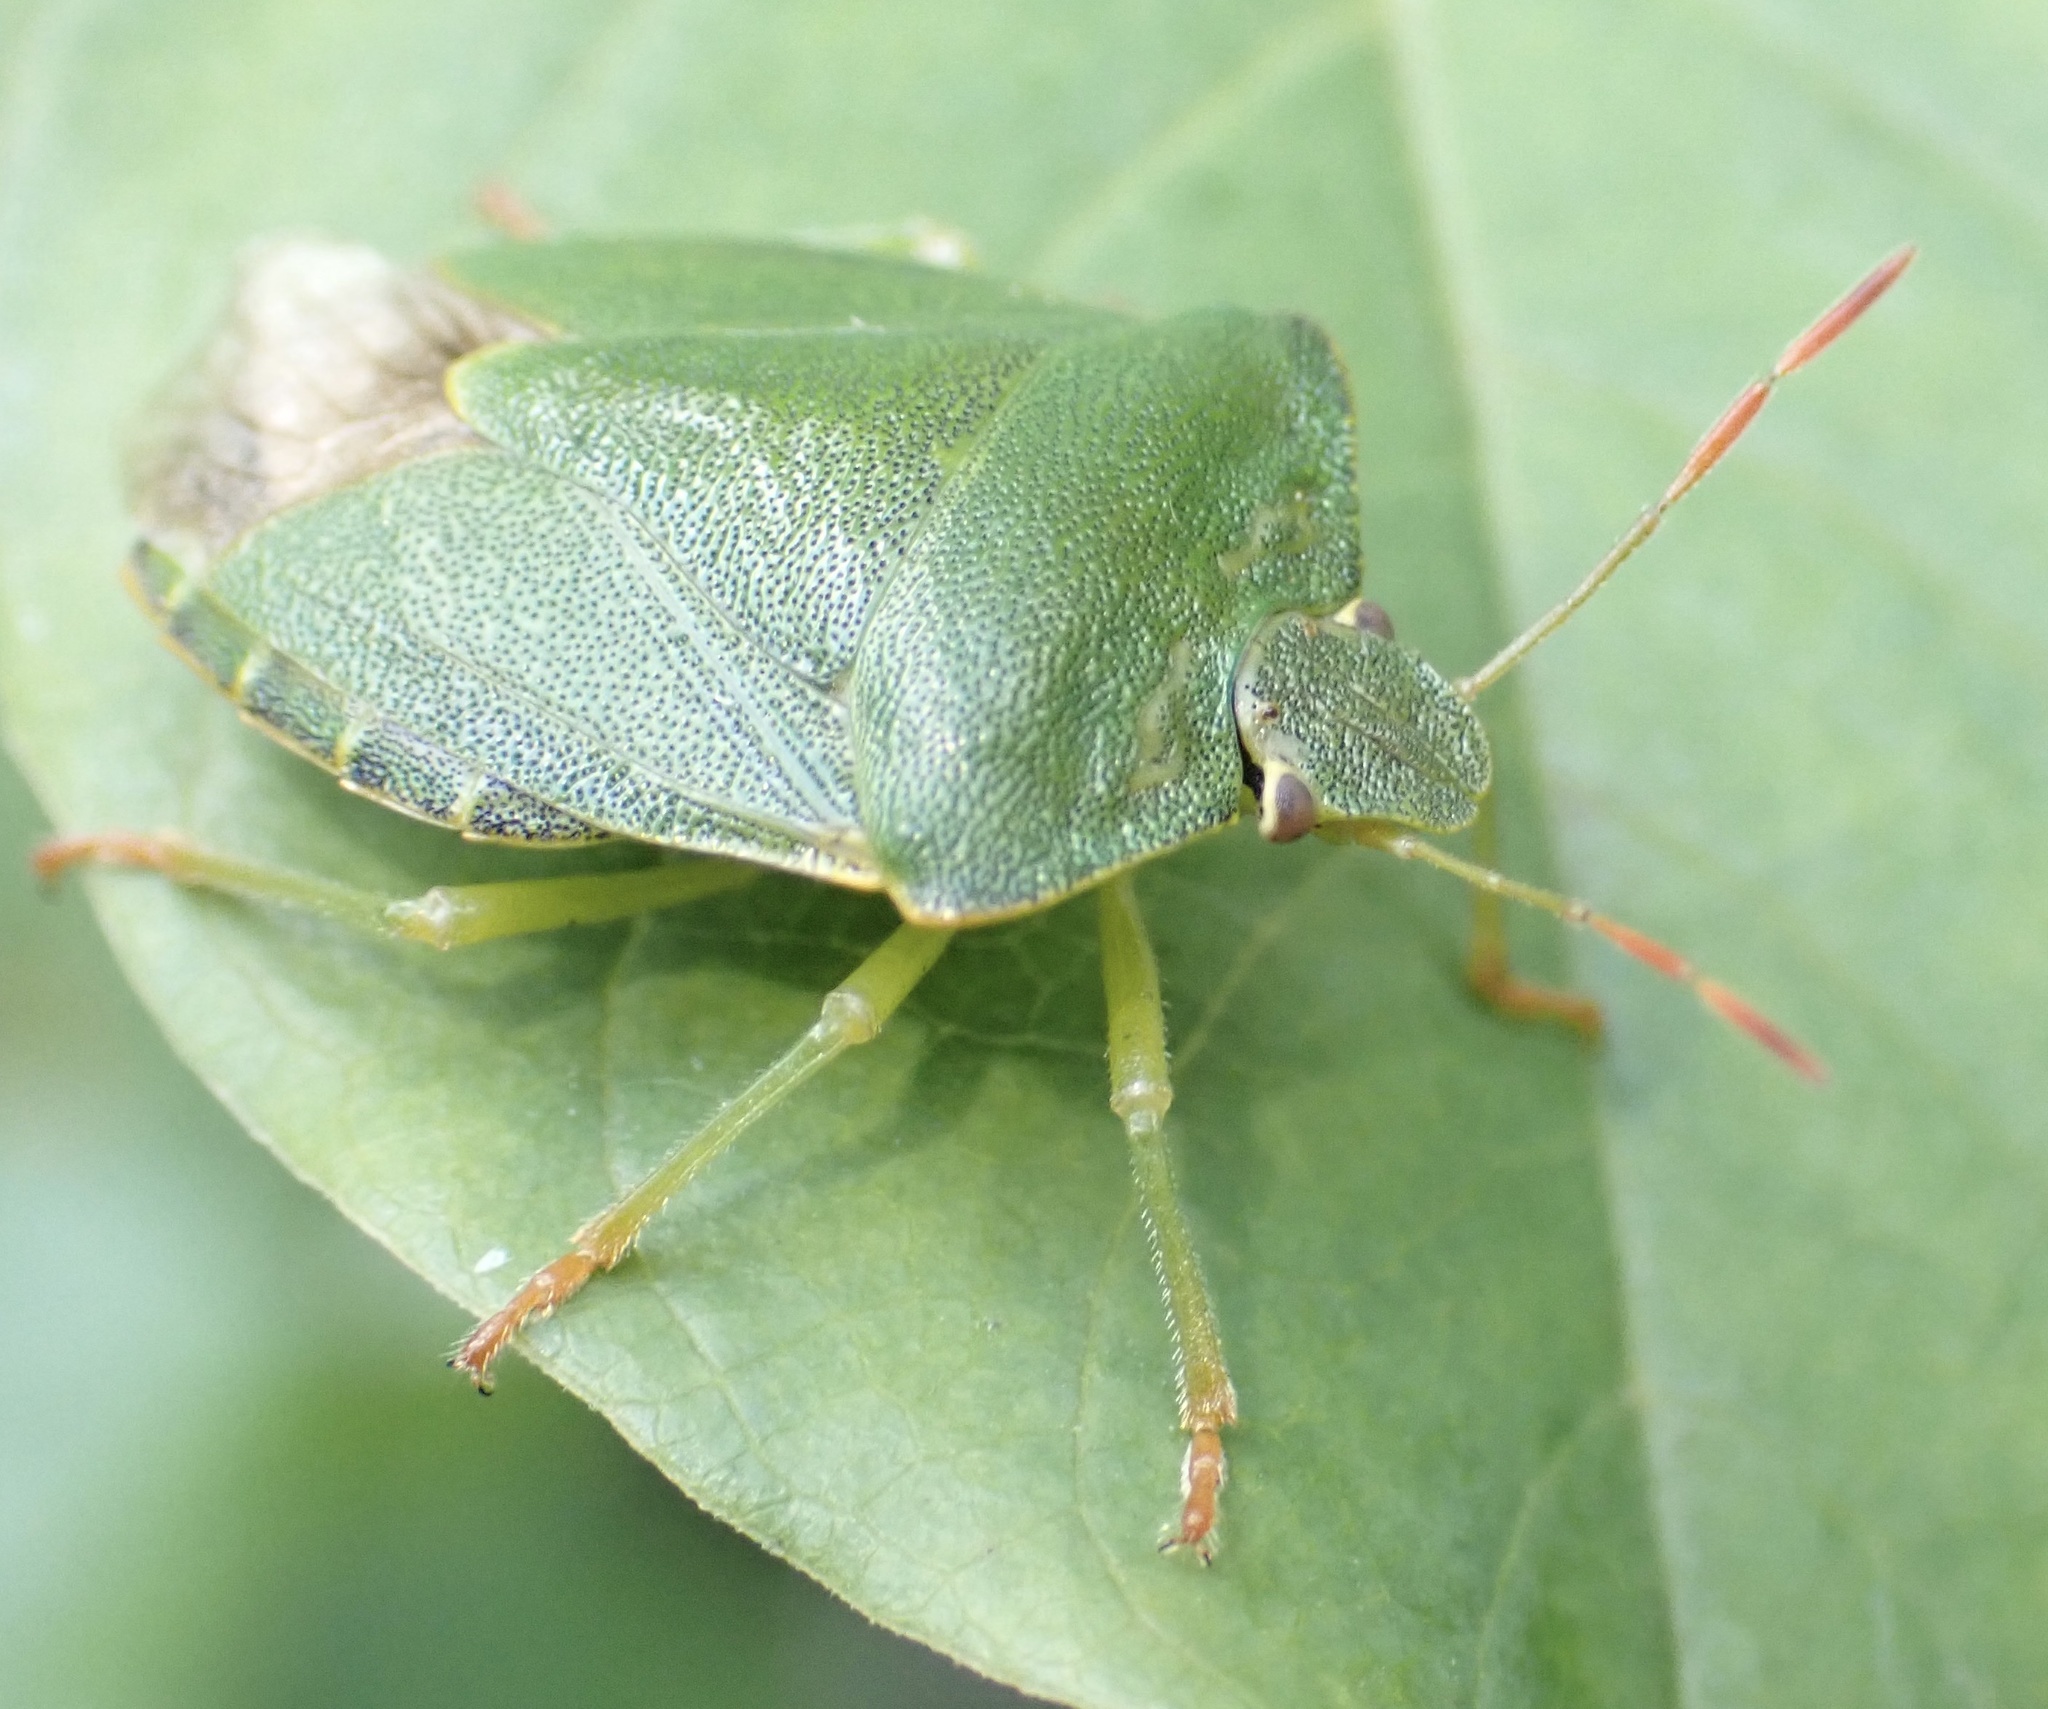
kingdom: Animalia
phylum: Arthropoda
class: Insecta
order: Hemiptera
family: Pentatomidae
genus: Palomena
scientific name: Palomena prasina
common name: Green shieldbug
